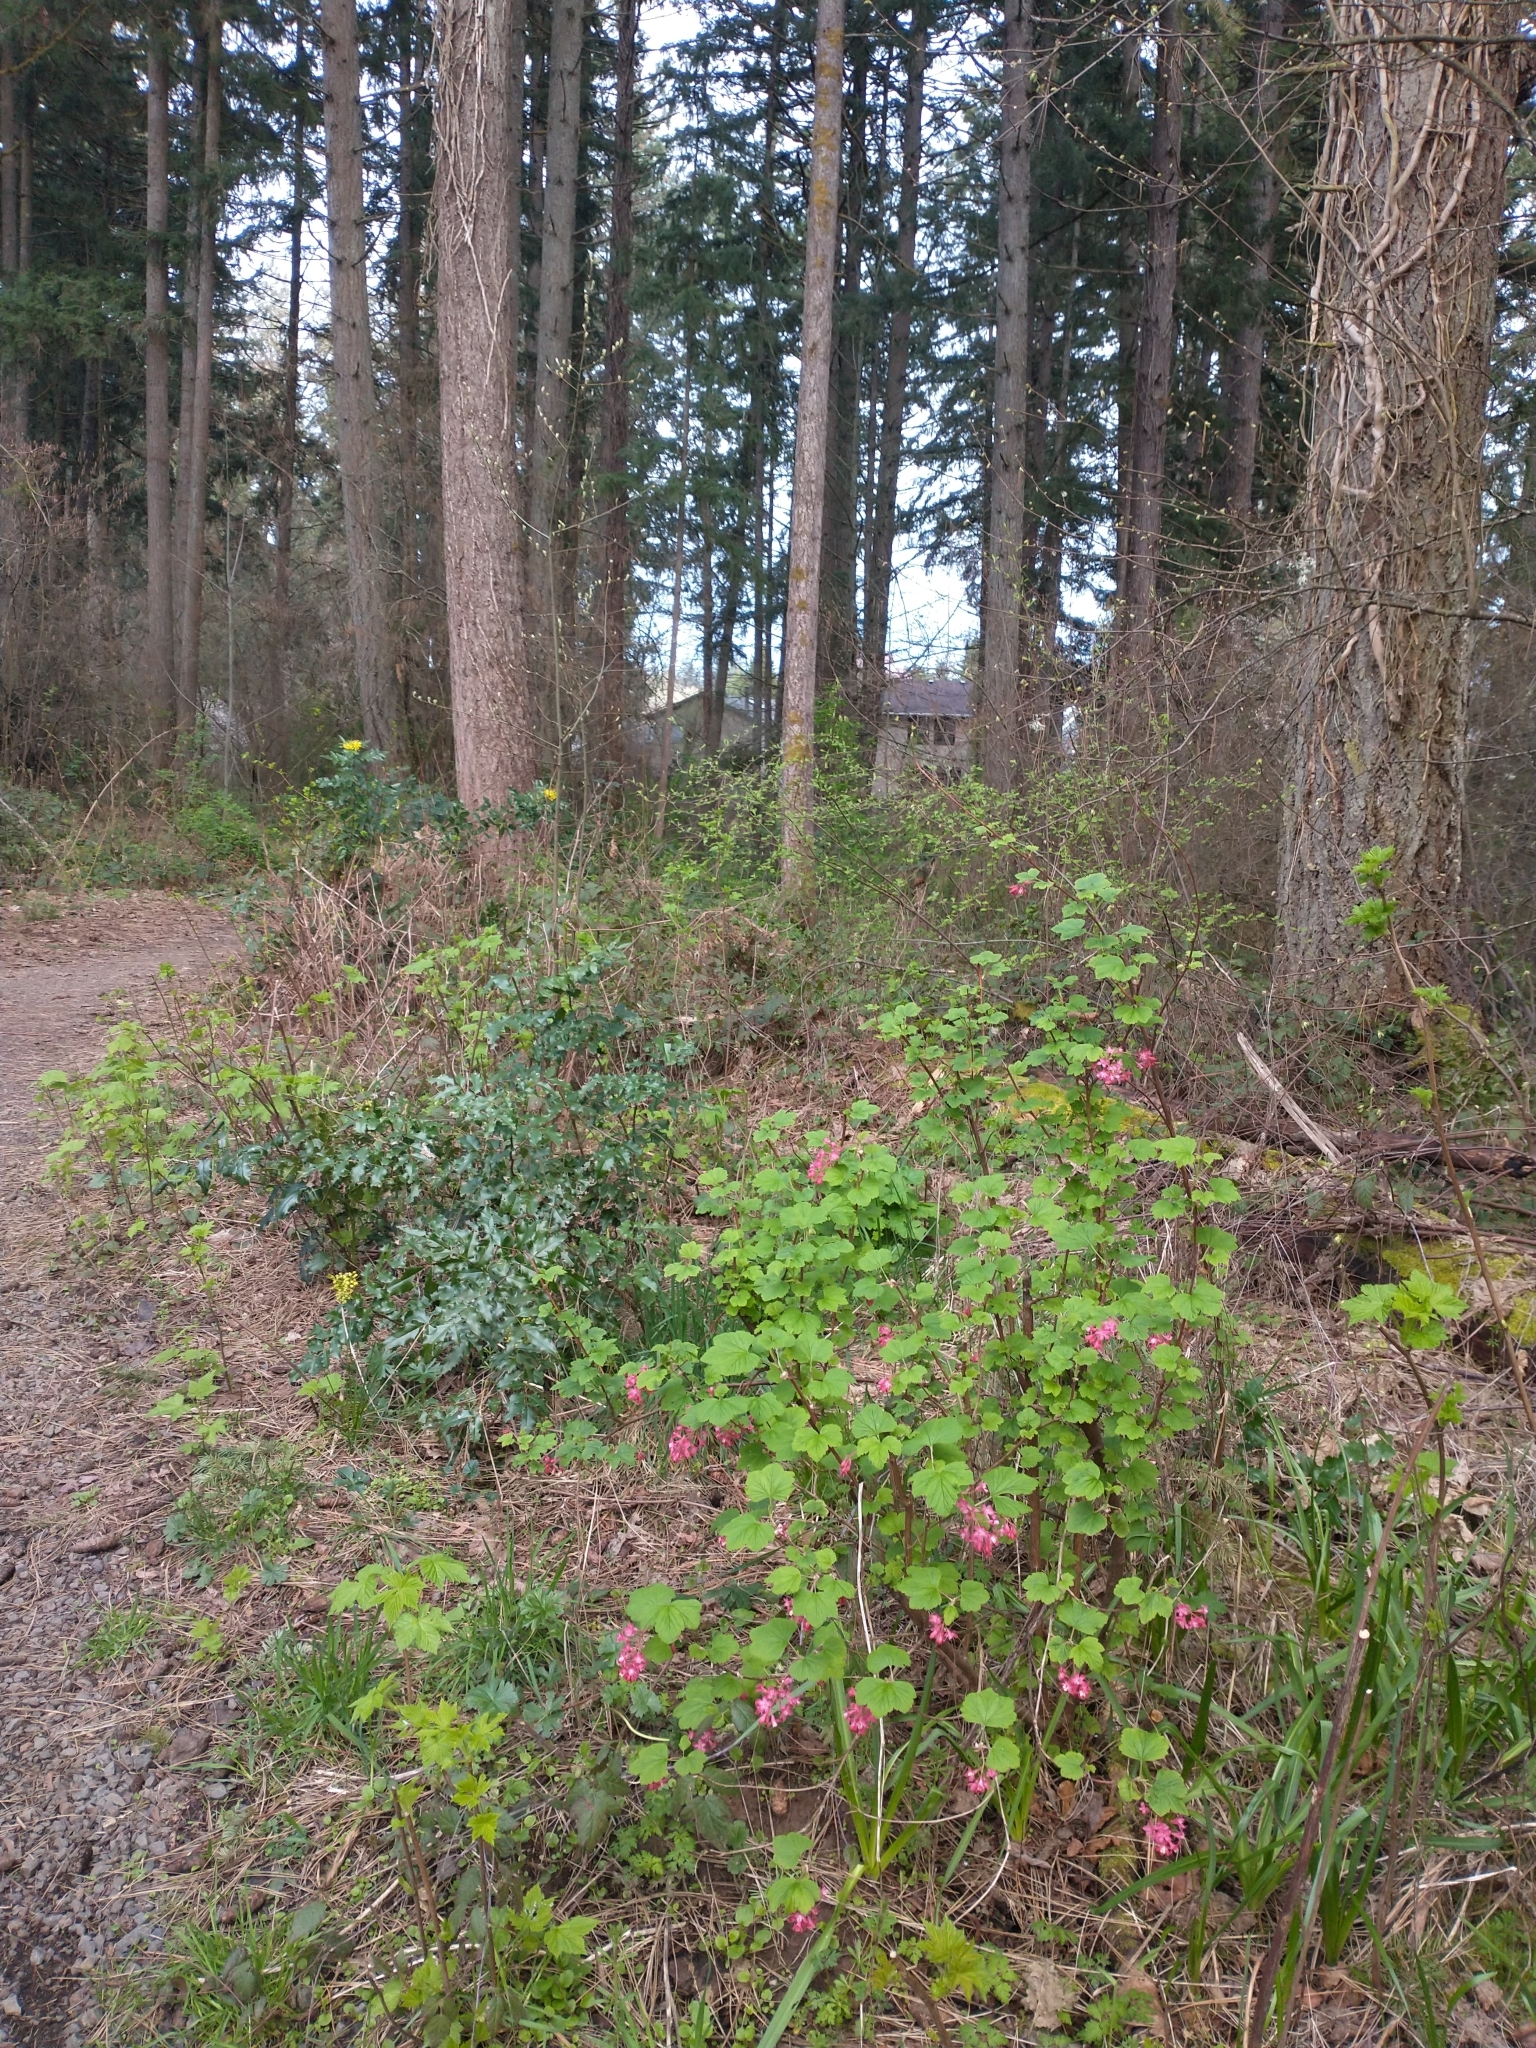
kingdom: Plantae
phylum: Tracheophyta
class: Magnoliopsida
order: Saxifragales
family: Grossulariaceae
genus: Ribes
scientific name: Ribes sanguineum
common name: Flowering currant
